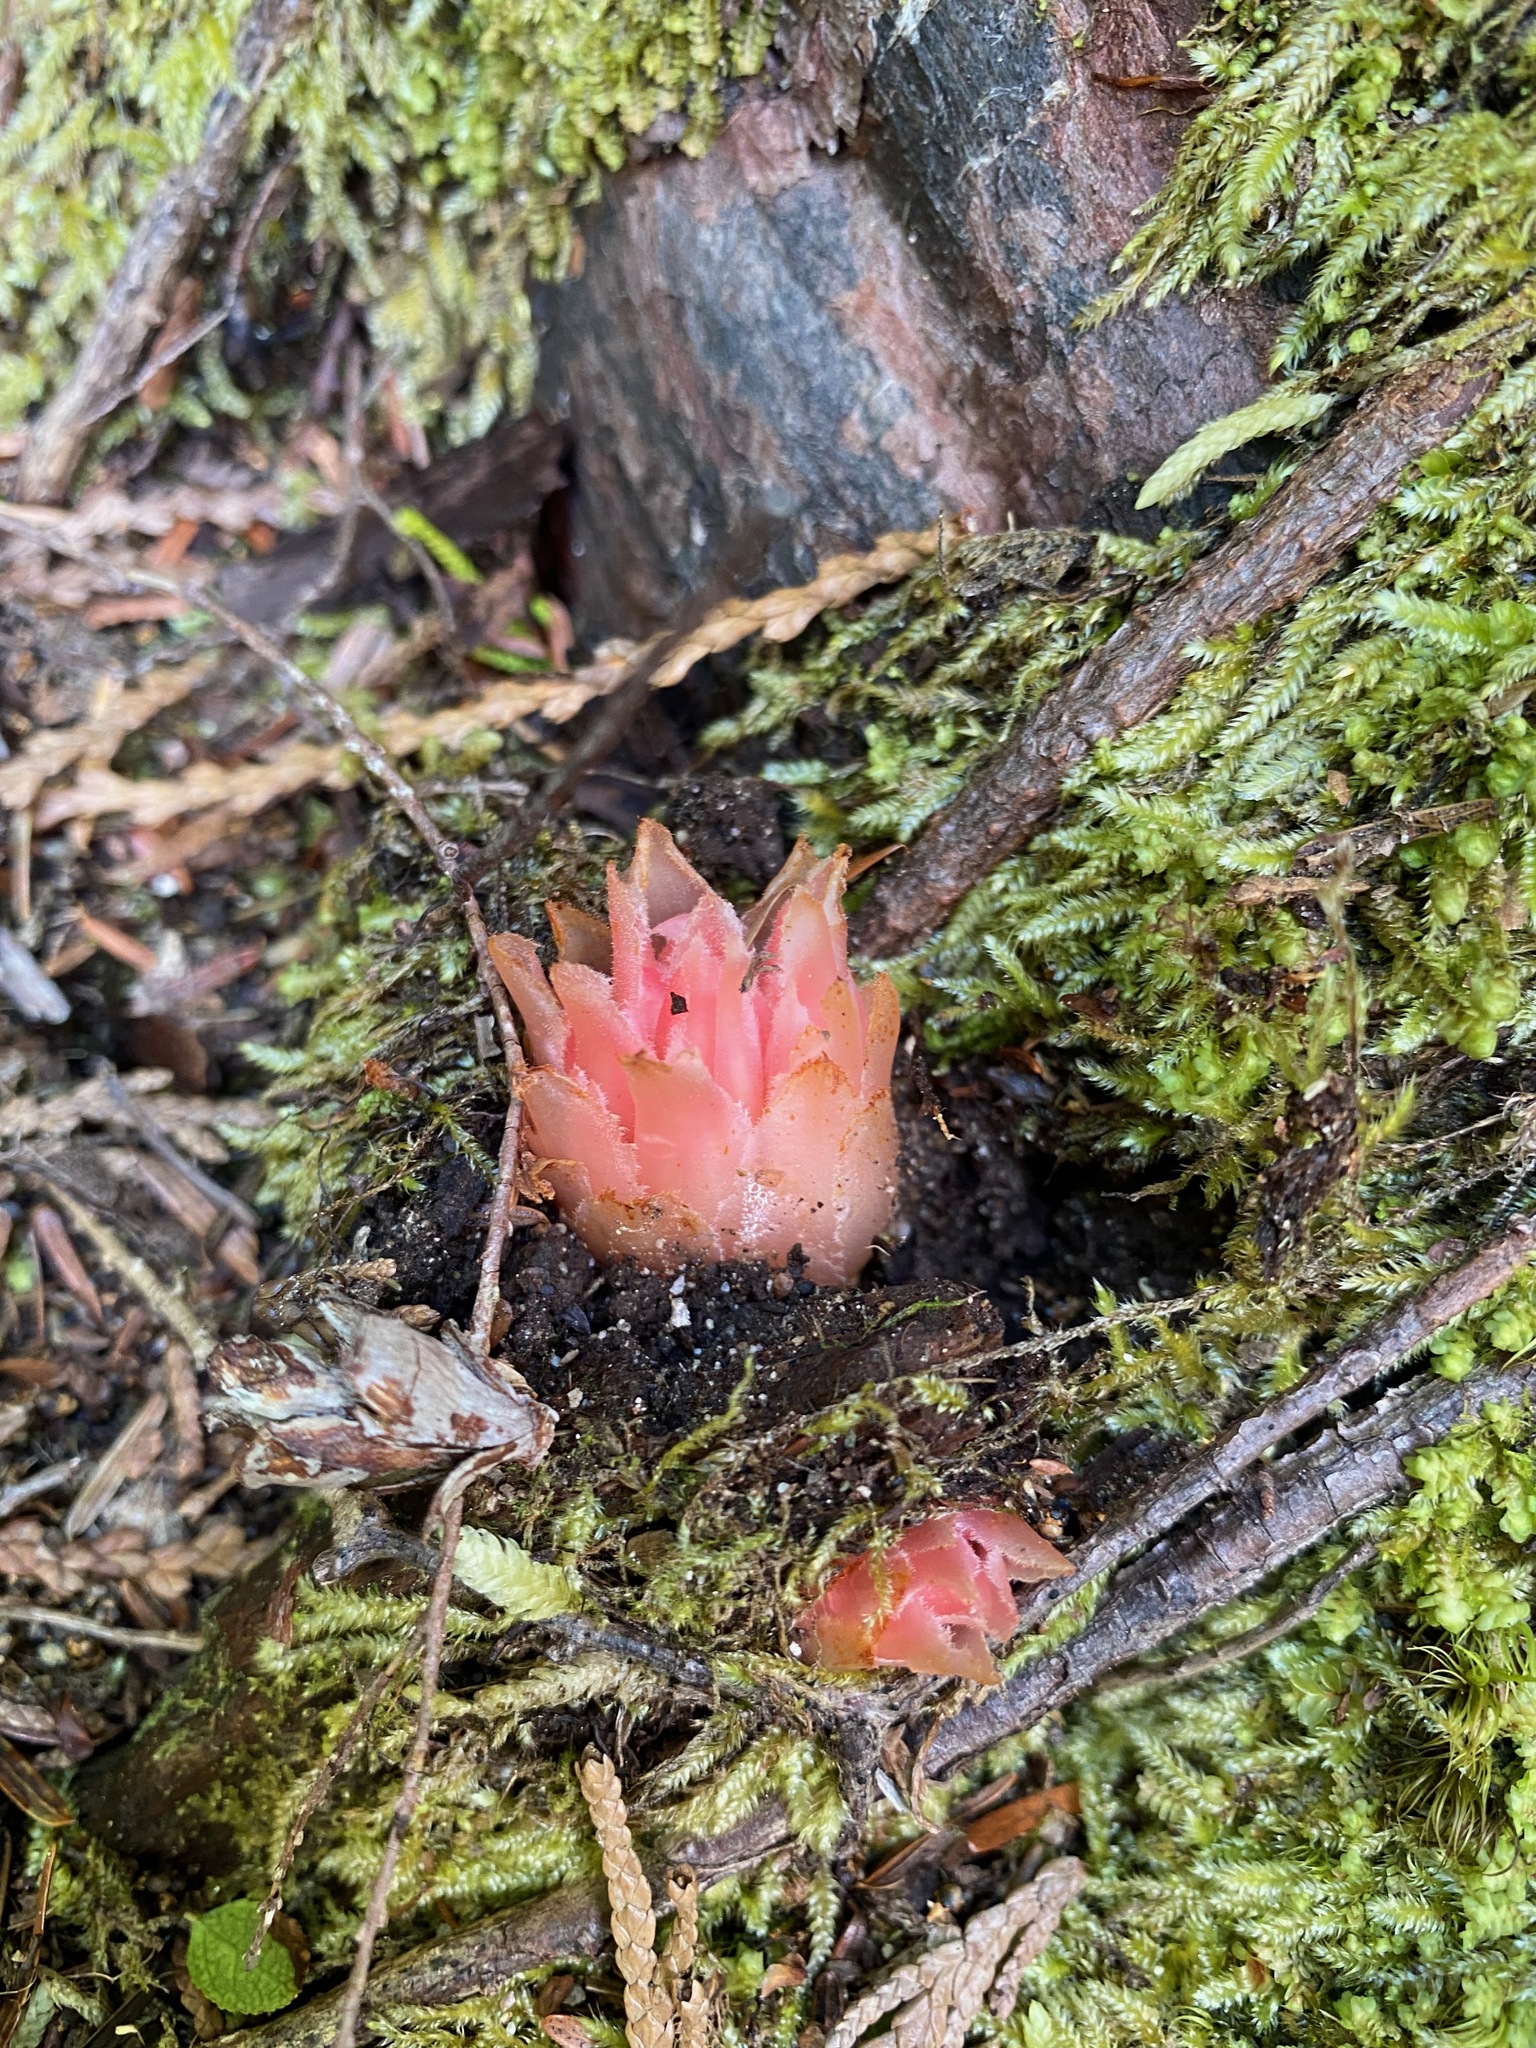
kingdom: Plantae
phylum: Tracheophyta
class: Magnoliopsida
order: Ericales
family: Ericaceae
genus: Hemitomes
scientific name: Hemitomes congestum
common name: Cone plant
